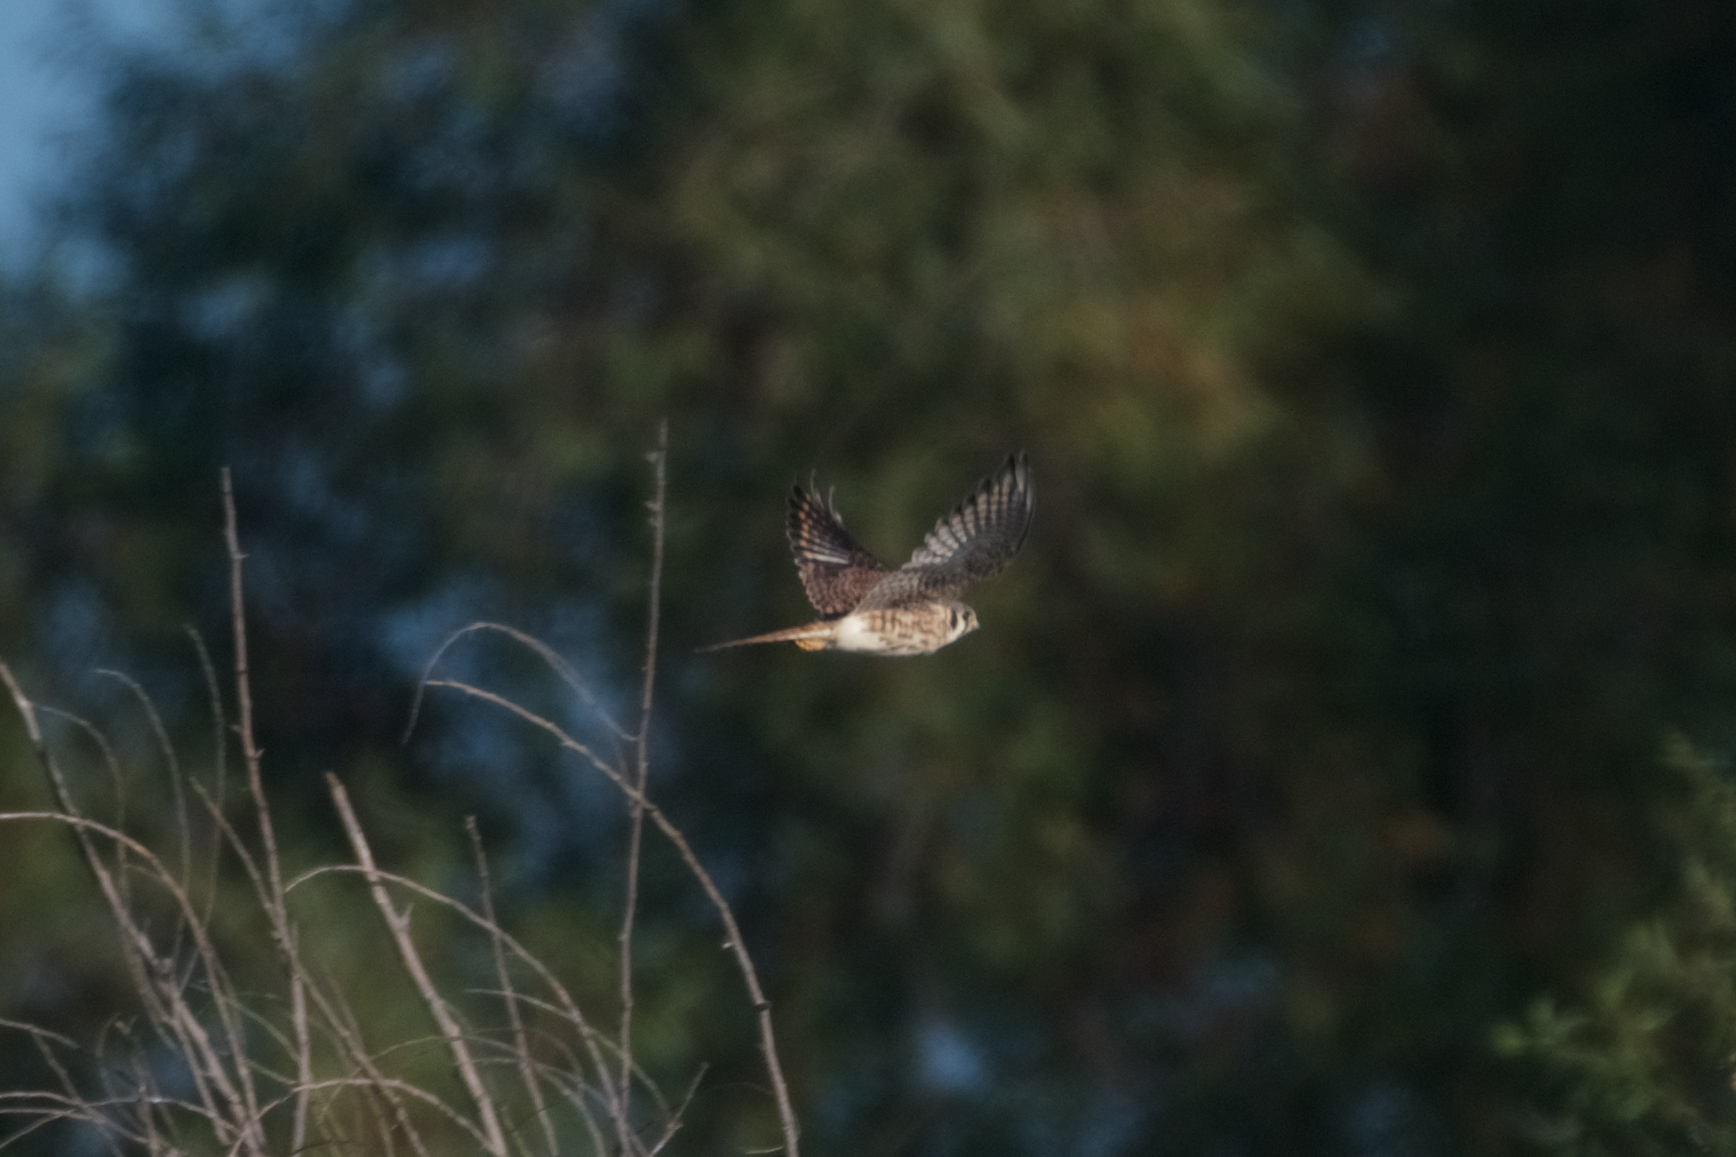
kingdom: Animalia
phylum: Chordata
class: Aves
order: Falconiformes
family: Falconidae
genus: Falco
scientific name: Falco sparverius
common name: American kestrel
